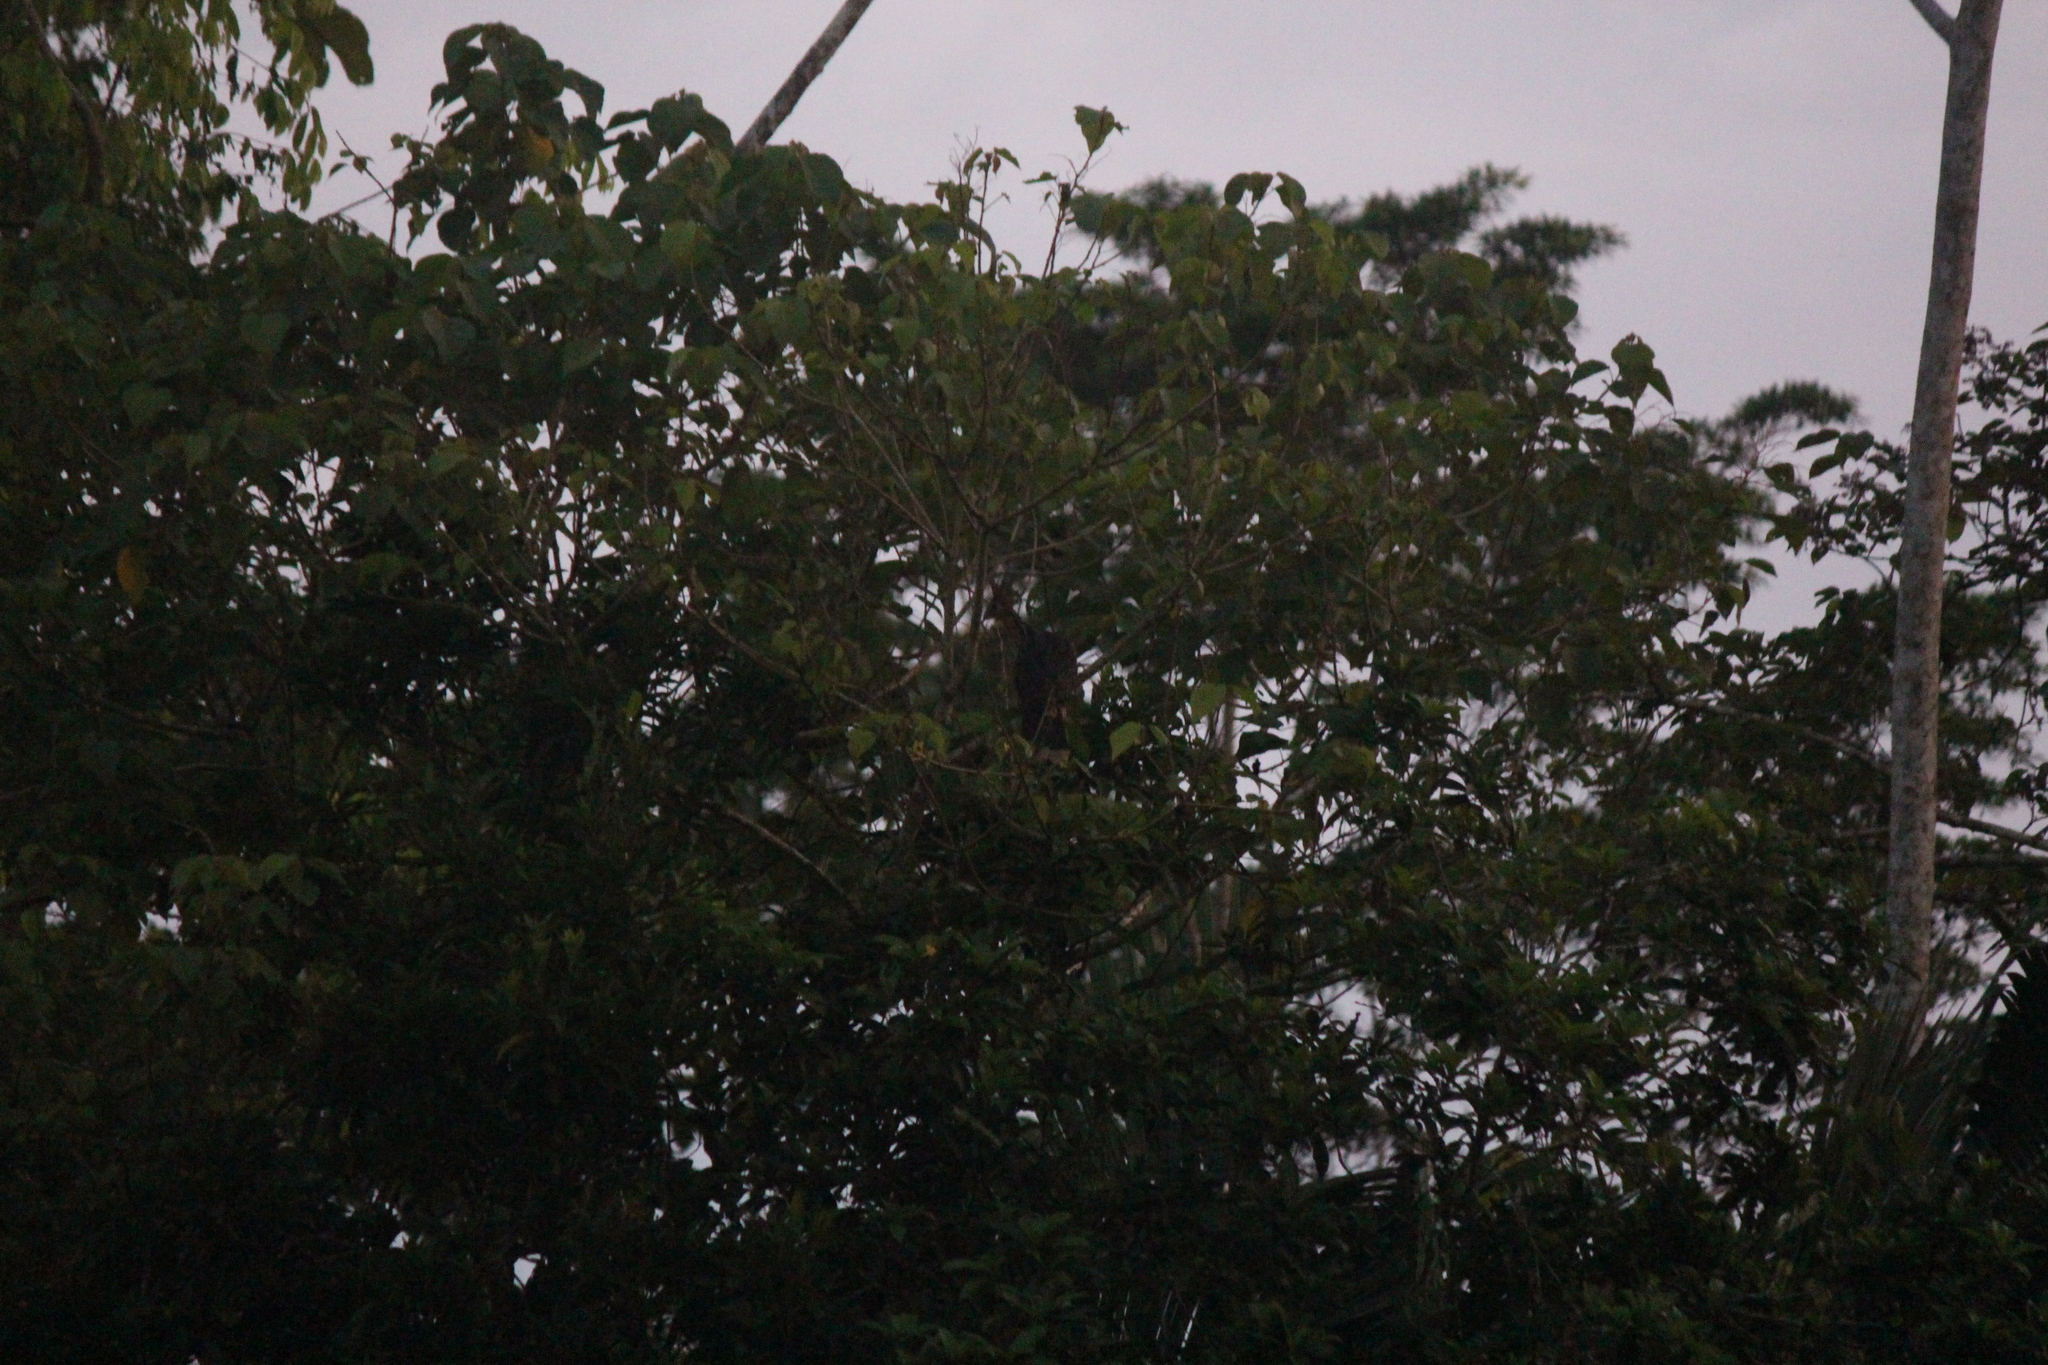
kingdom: Animalia
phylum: Chordata
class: Aves
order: Opisthocomiformes
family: Opisthocomidae
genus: Opisthocomus
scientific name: Opisthocomus hoazin
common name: Hoatzin
